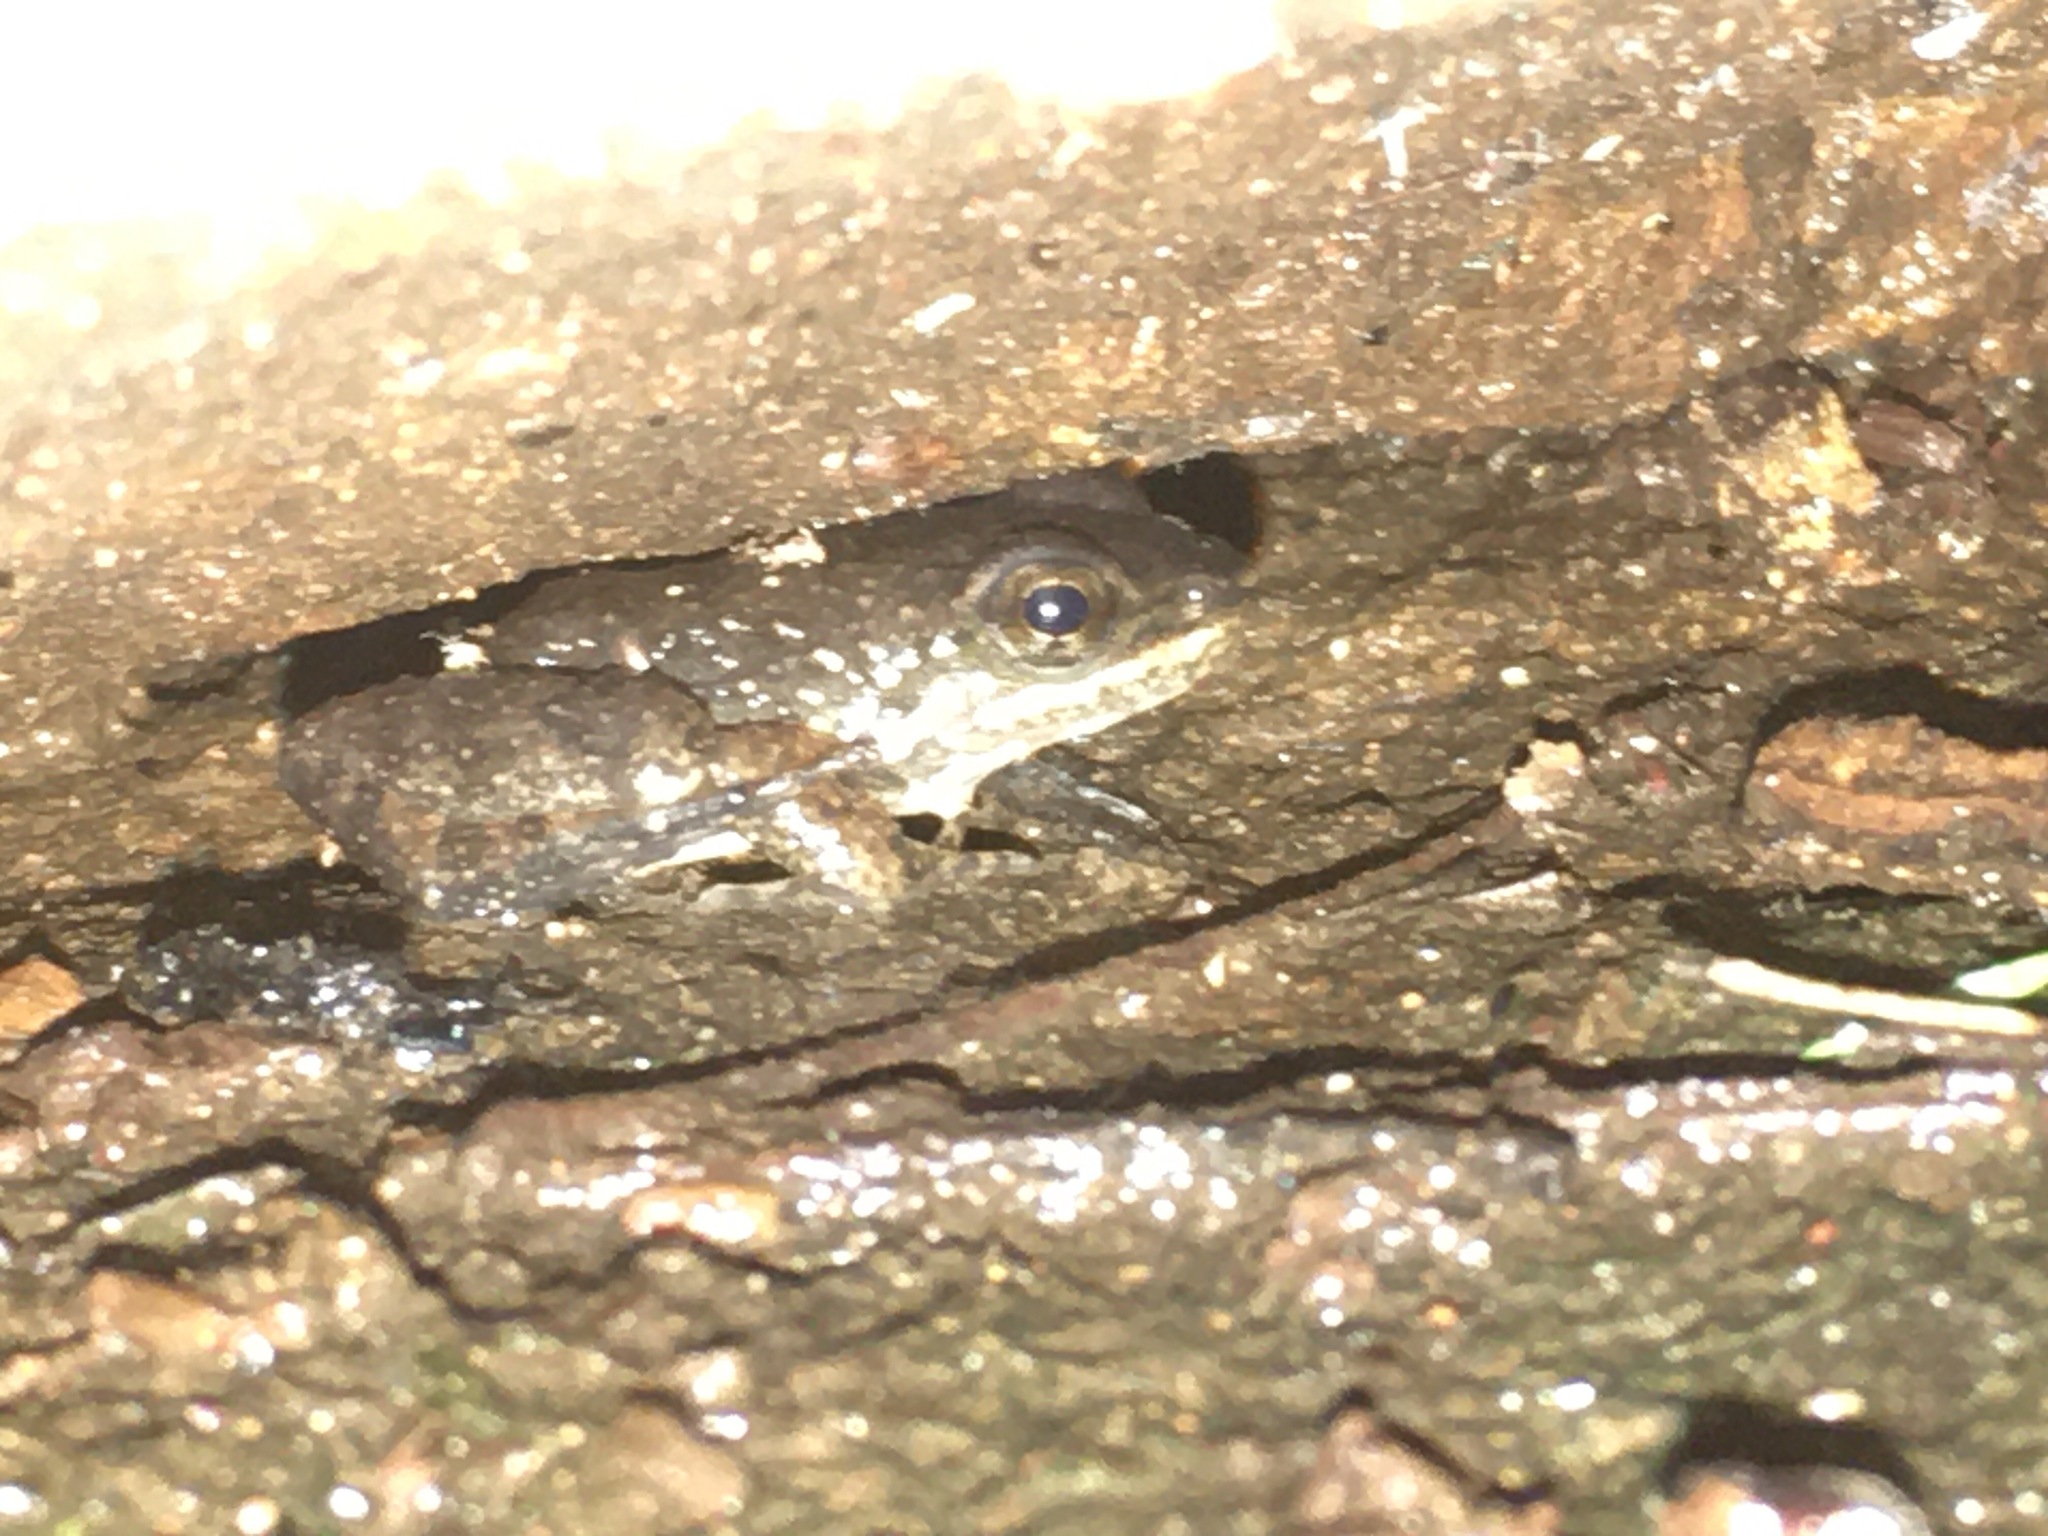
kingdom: Animalia
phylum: Chordata
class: Amphibia
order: Anura
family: Hylodidae
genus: Crossodactylus
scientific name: Crossodactylus schmidti
